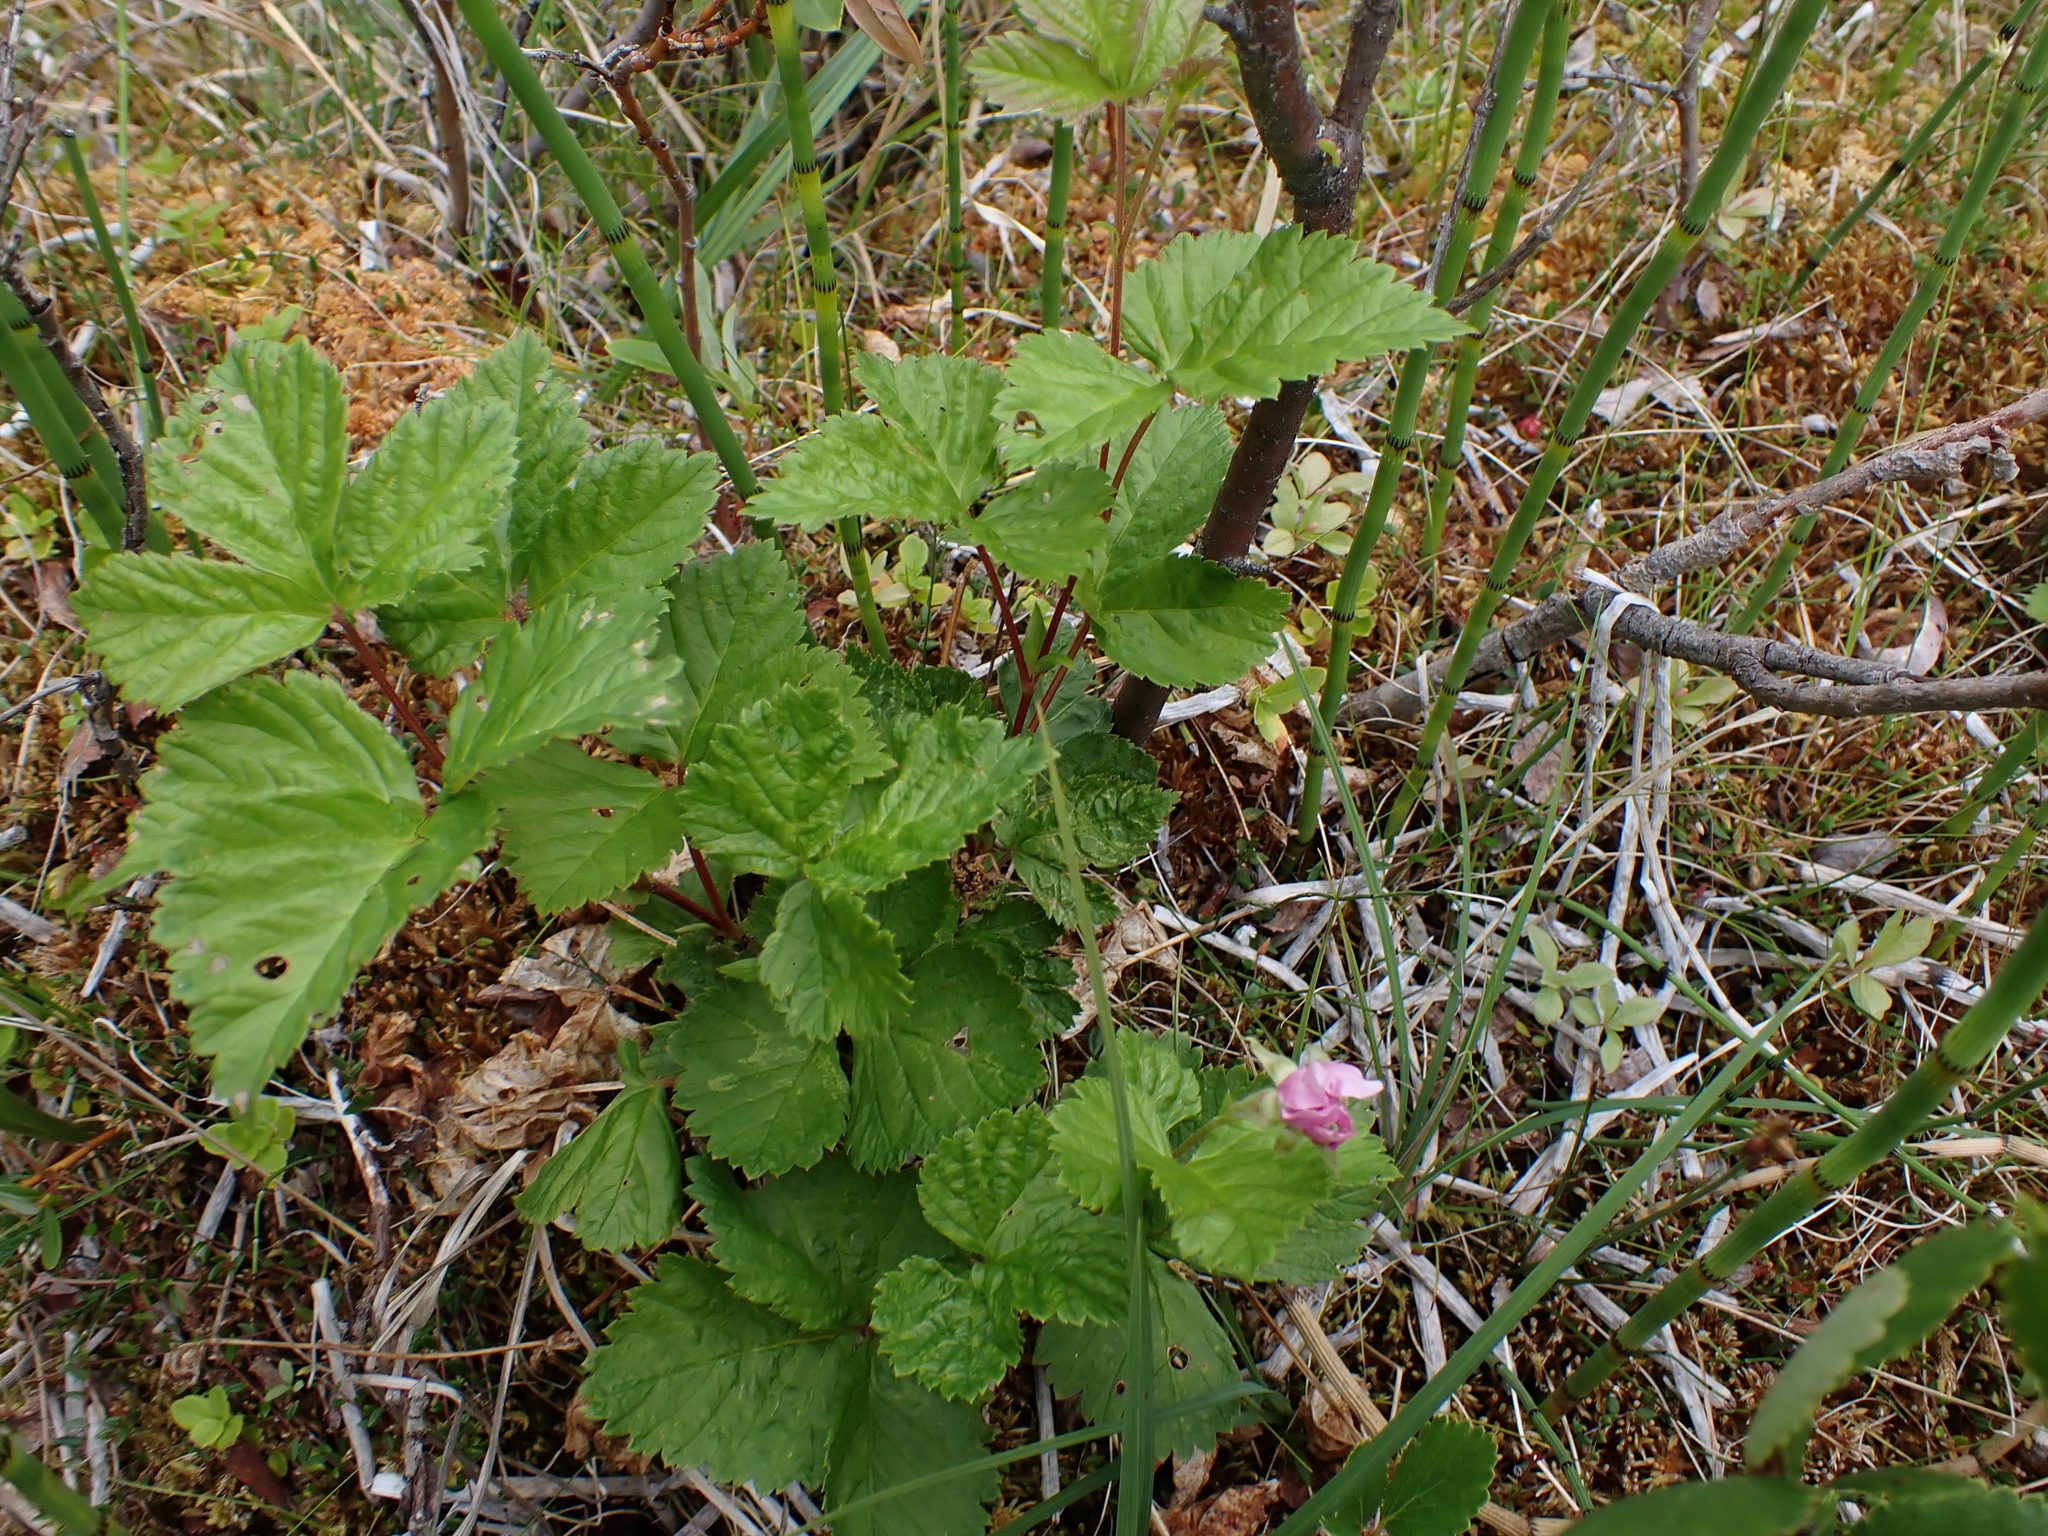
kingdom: Plantae
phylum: Tracheophyta
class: Magnoliopsida
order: Rosales
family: Rosaceae
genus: Rubus
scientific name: Rubus arcticus
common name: Arctic bramble
